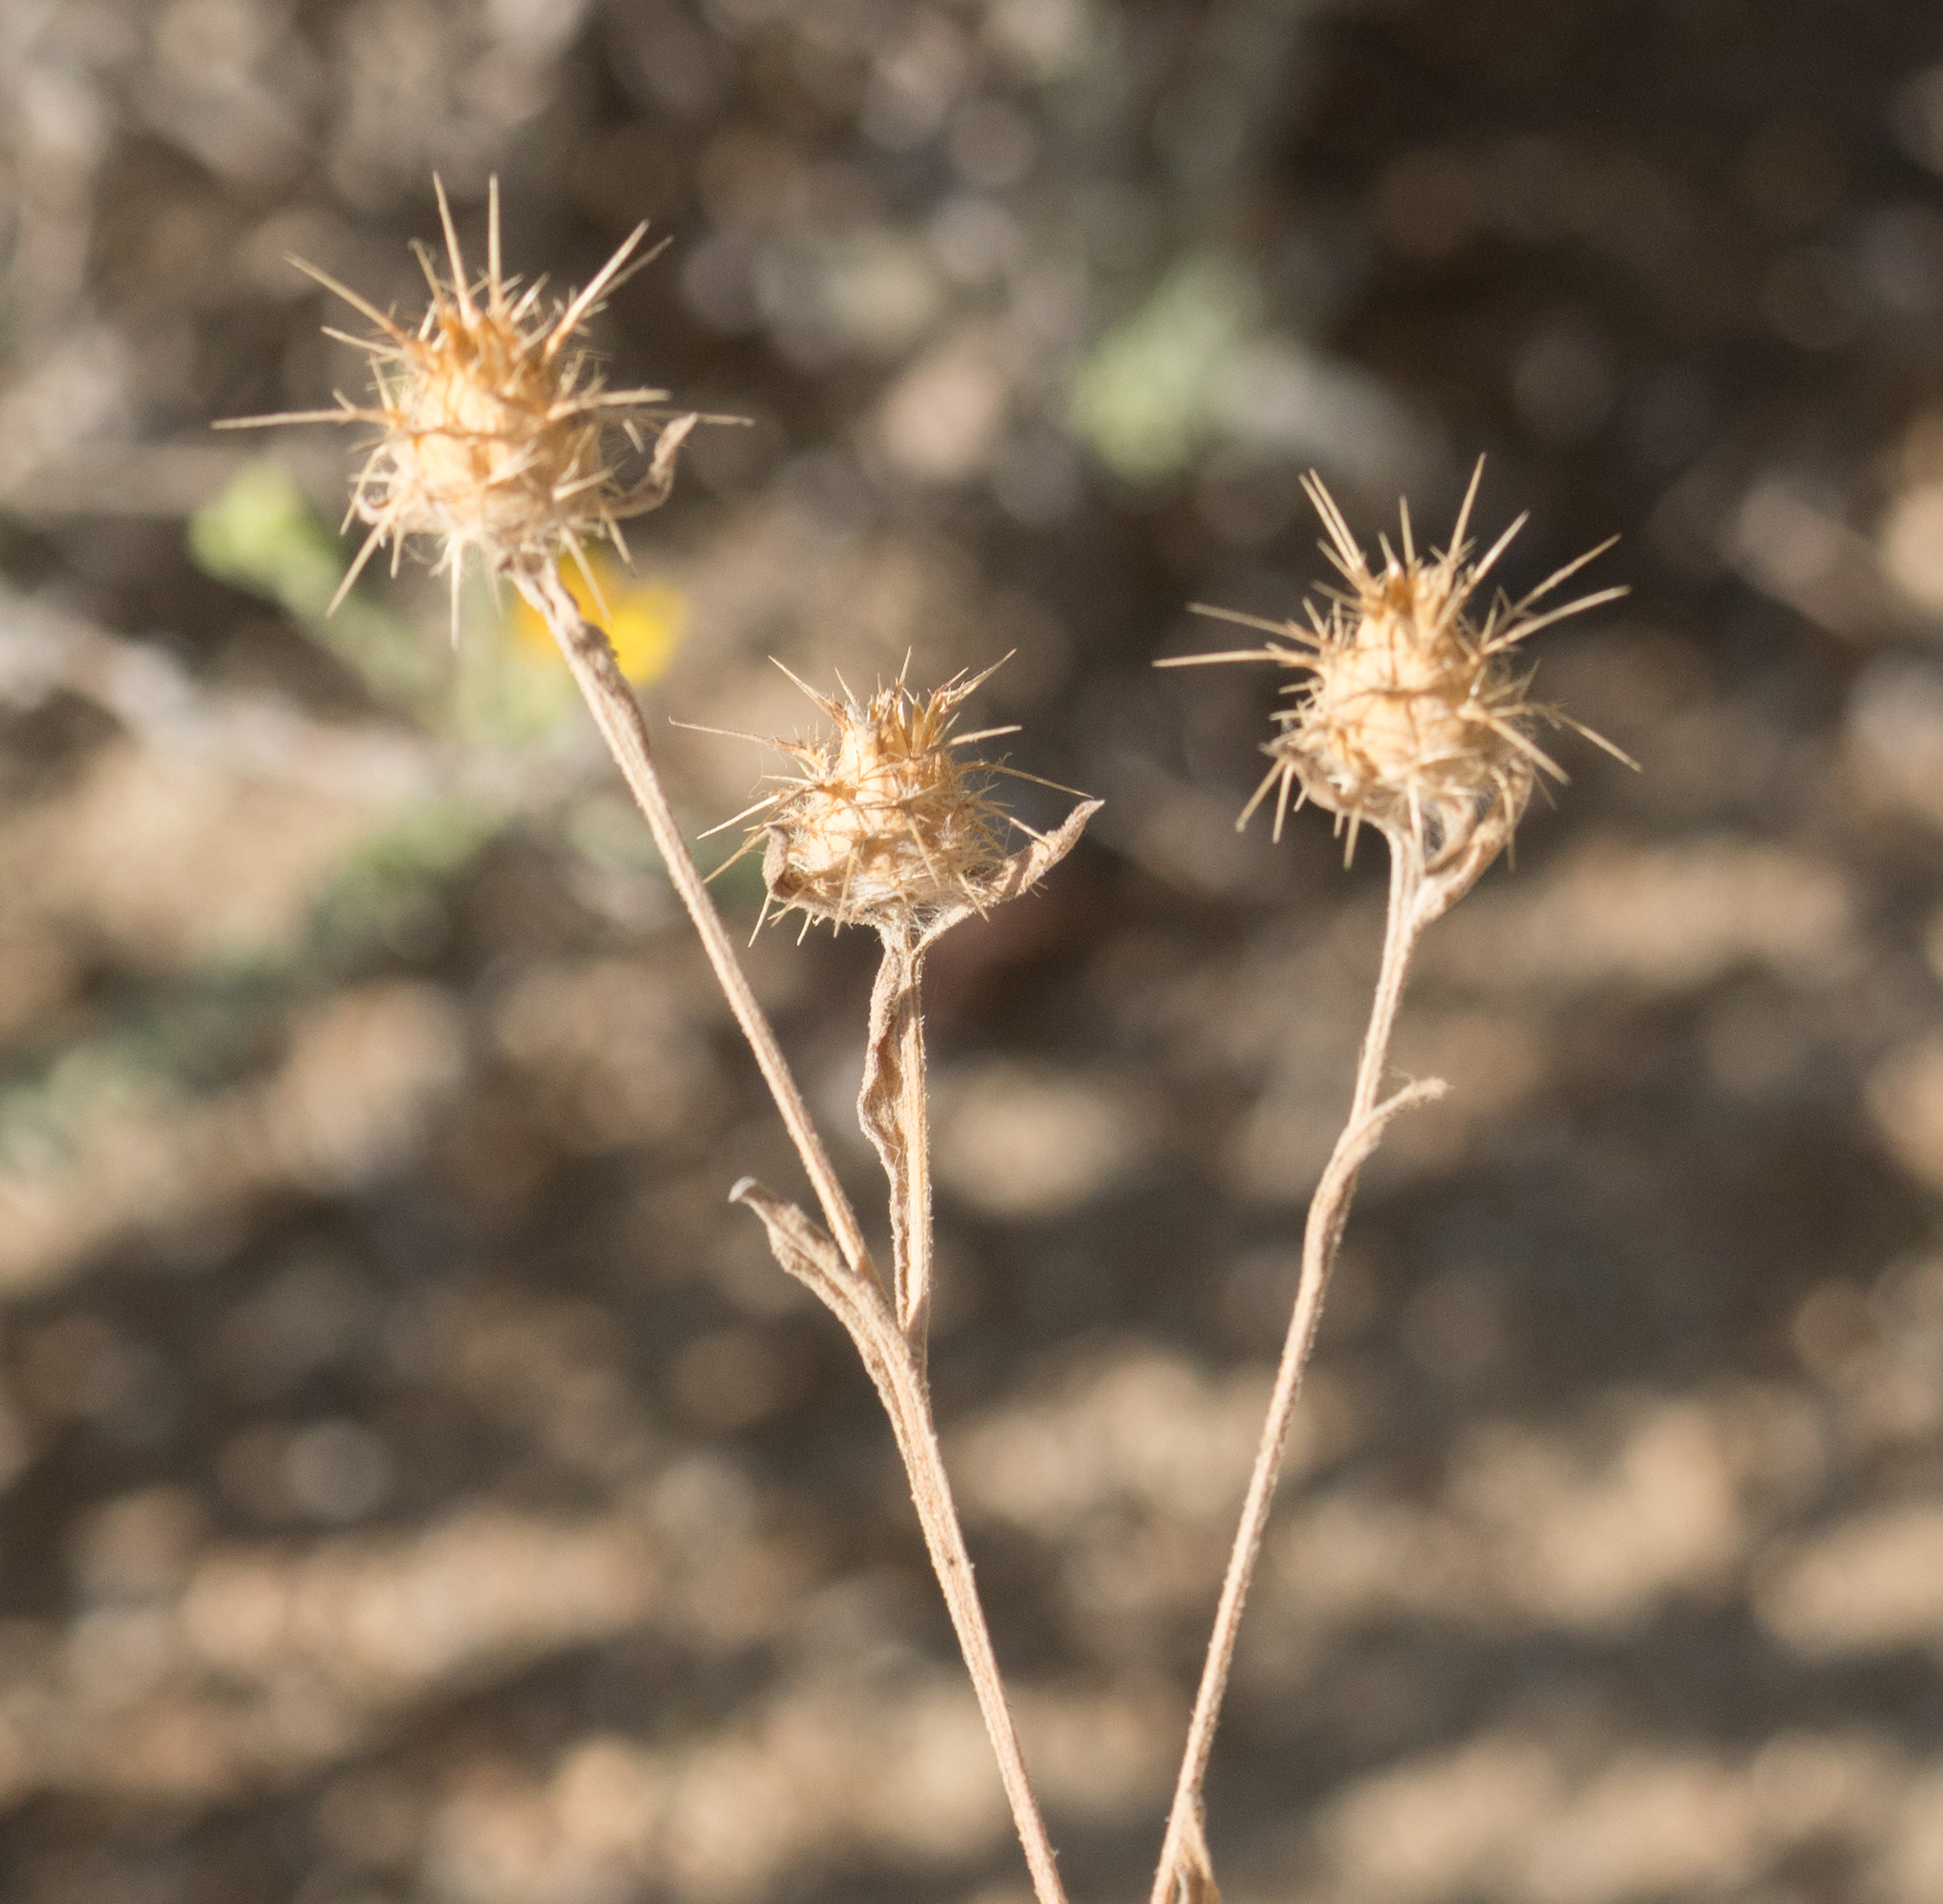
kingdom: Plantae
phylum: Tracheophyta
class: Magnoliopsida
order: Asterales
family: Asteraceae
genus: Centaurea
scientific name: Centaurea melitensis
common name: Maltese star-thistle
